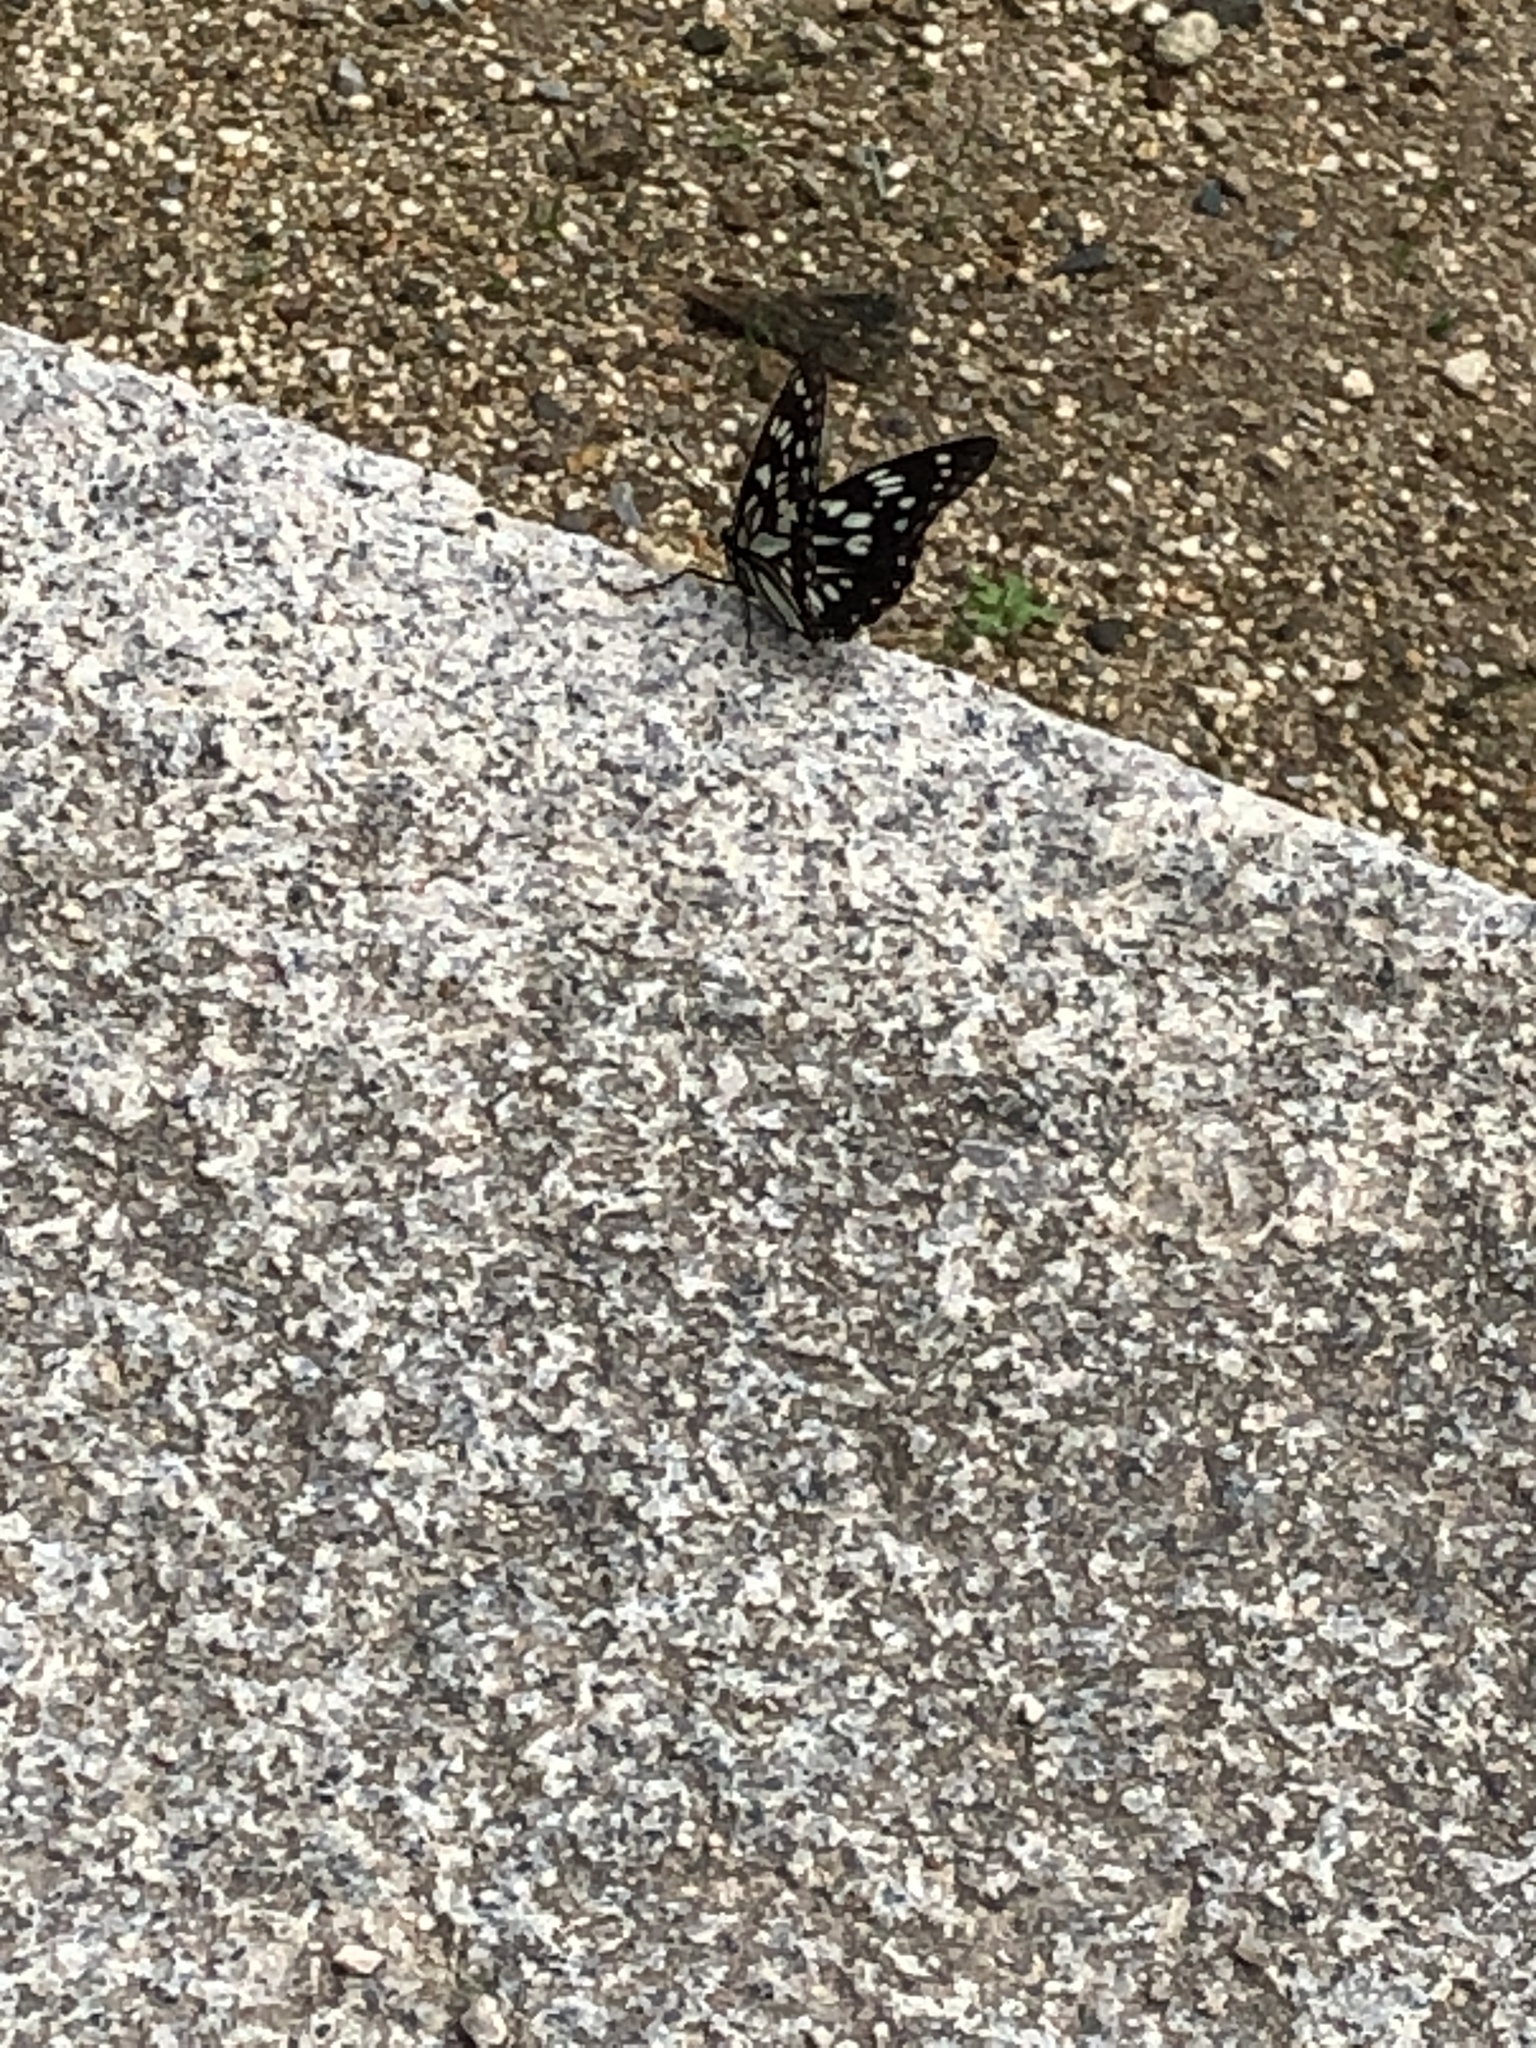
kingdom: Animalia
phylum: Arthropoda
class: Insecta
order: Lepidoptera
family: Nymphalidae
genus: Hestina
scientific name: Hestina persimilis
